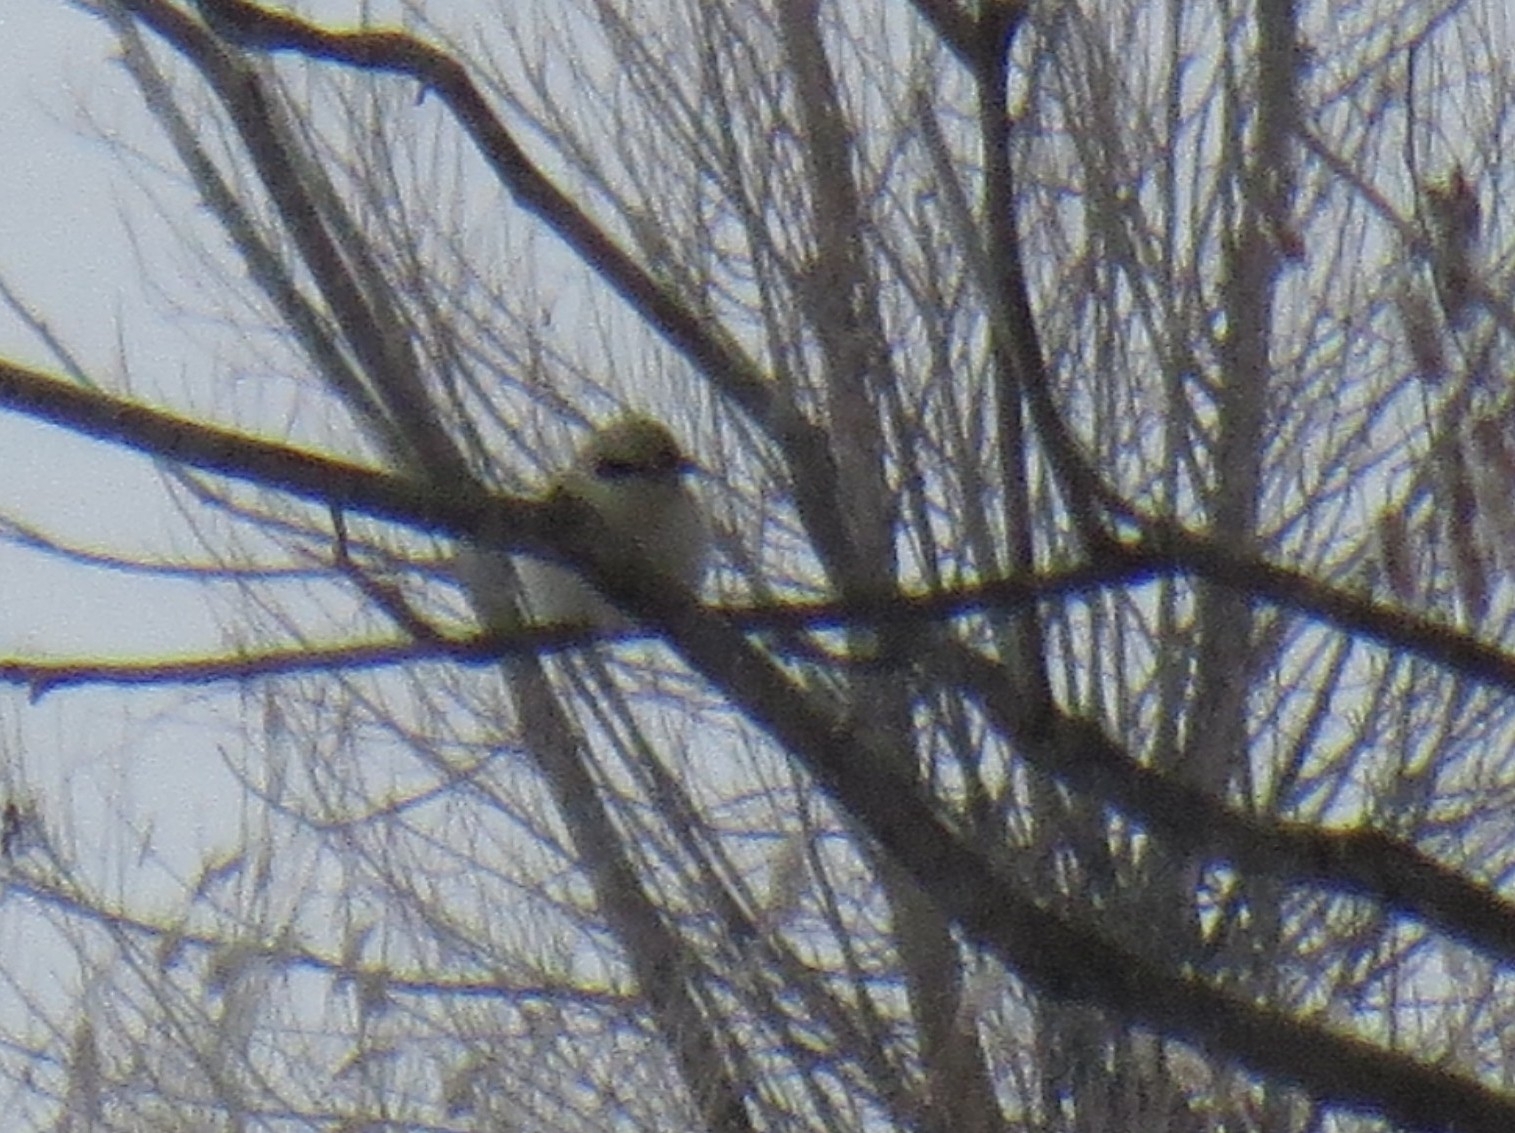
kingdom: Animalia
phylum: Chordata
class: Aves
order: Passeriformes
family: Laniidae
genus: Lanius
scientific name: Lanius excubitor
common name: Great grey shrike
